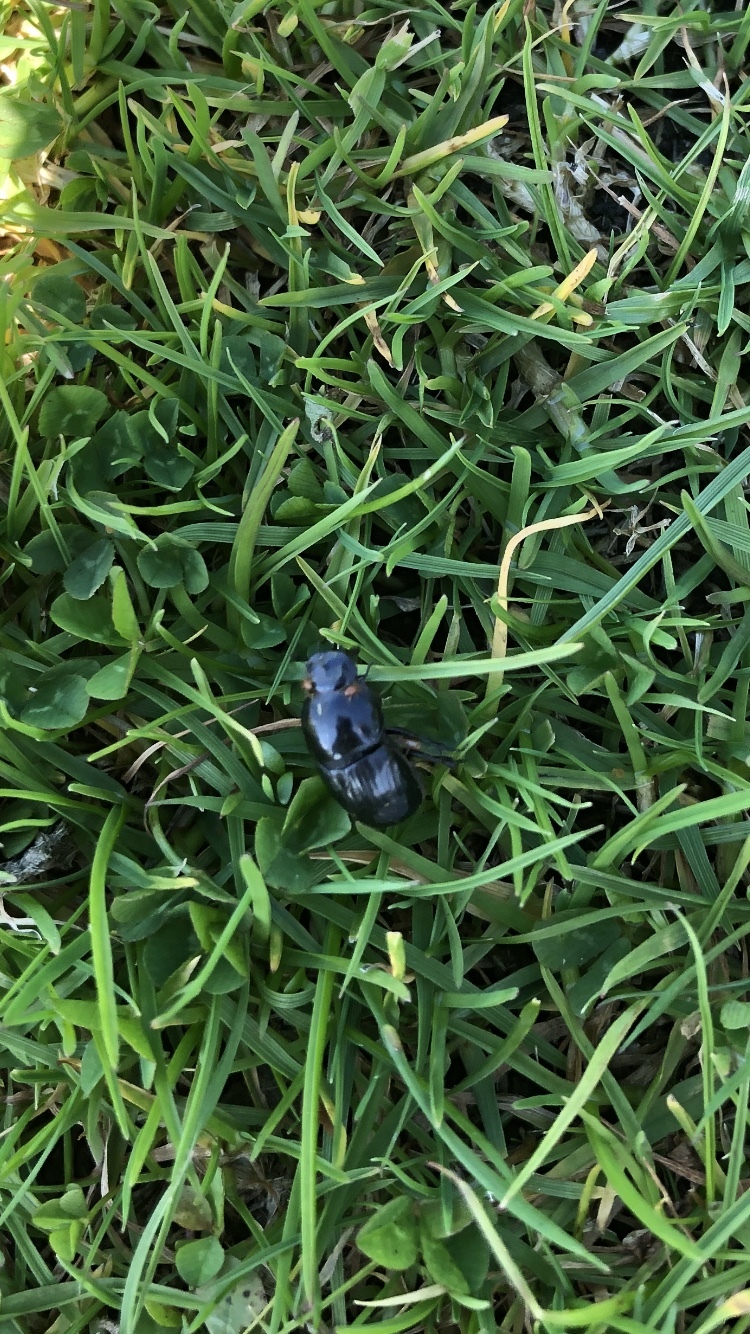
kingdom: Animalia
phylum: Arthropoda
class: Insecta
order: Coleoptera
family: Scarabaeidae
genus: Teuchestes
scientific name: Teuchestes fossor
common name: Digger small dung beetle
